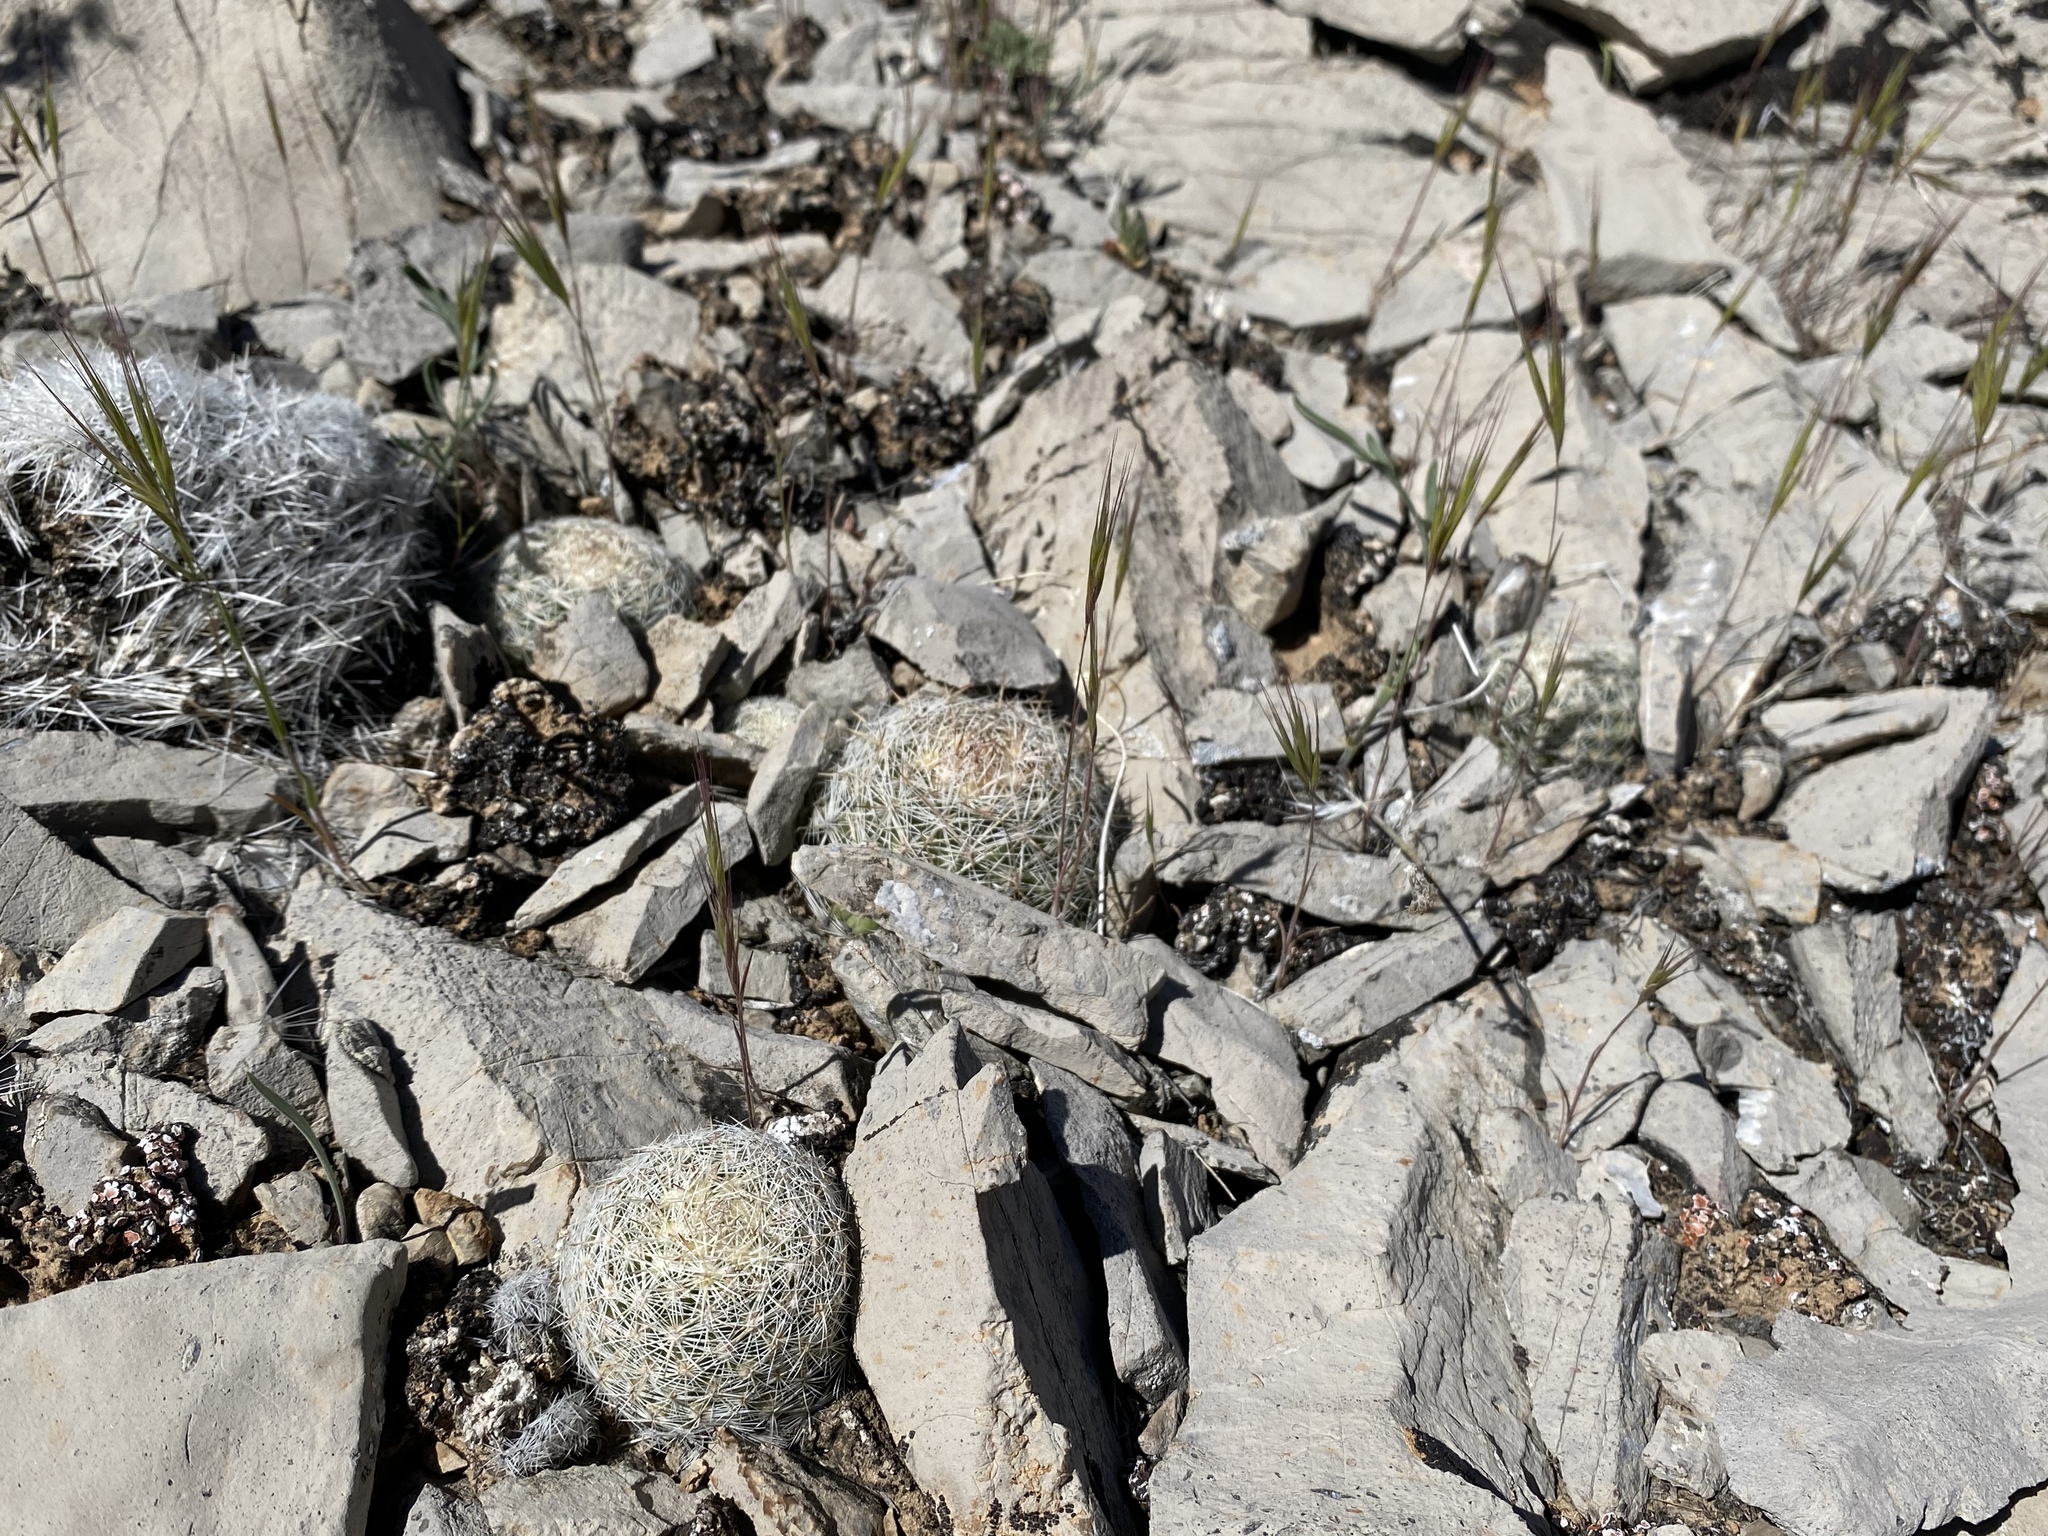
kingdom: Plantae
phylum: Tracheophyta
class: Magnoliopsida
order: Caryophyllales
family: Cactaceae
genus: Pelecyphora
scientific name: Pelecyphora dasyacantha
